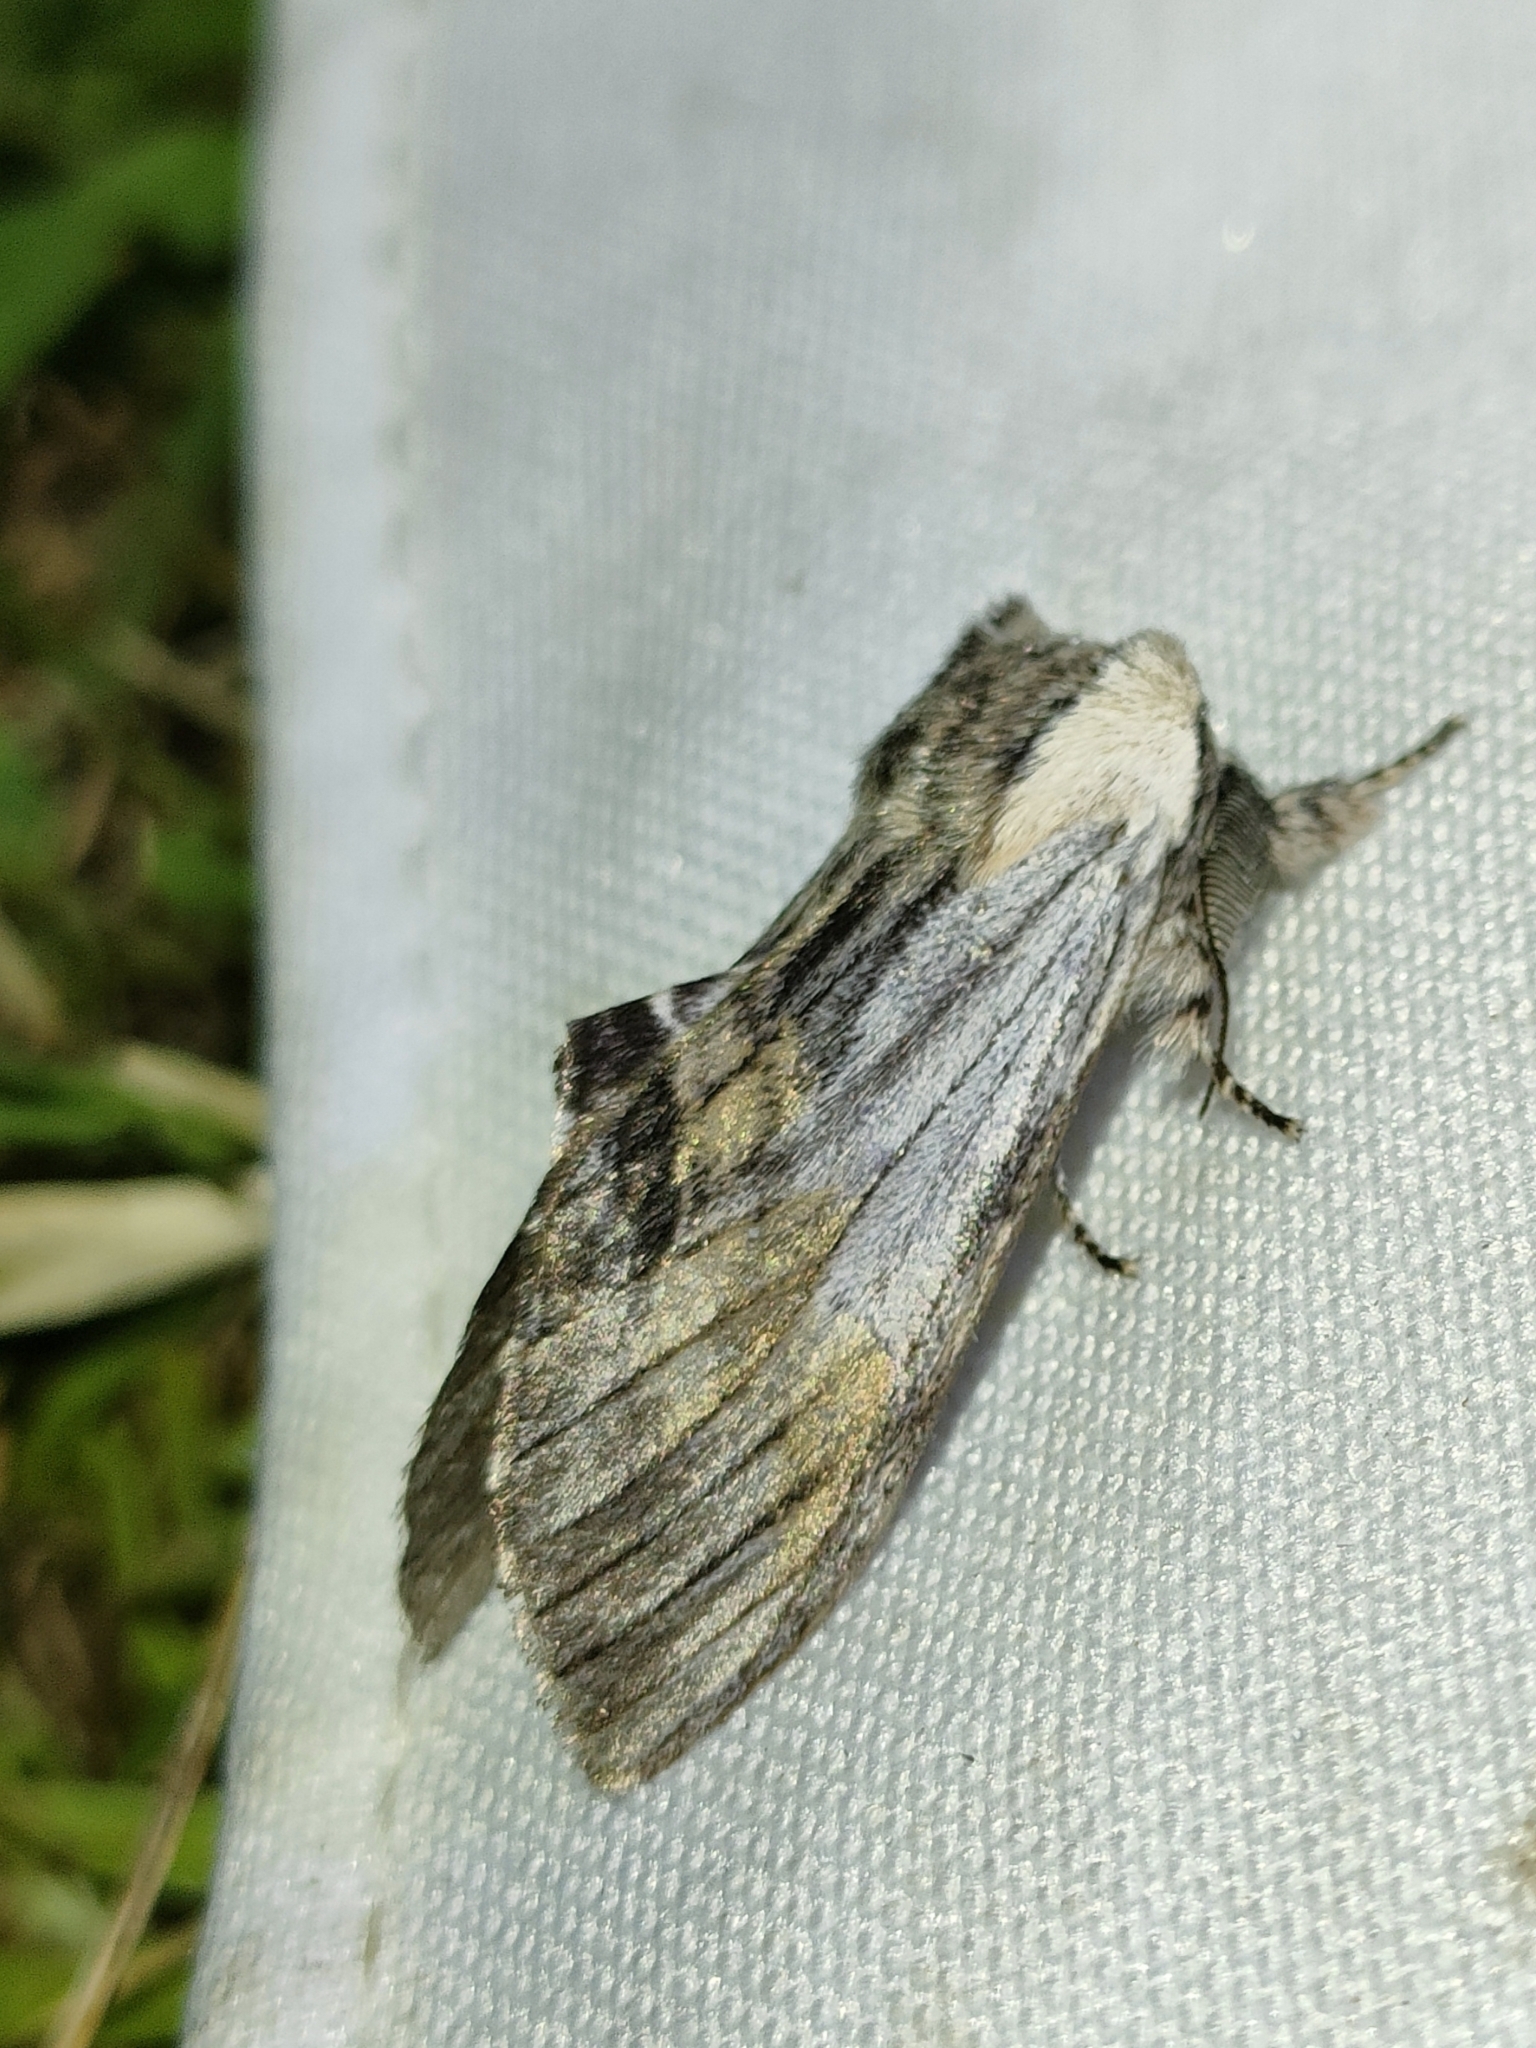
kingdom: Animalia
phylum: Arthropoda
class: Insecta
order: Lepidoptera
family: Notodontidae
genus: Harpyia
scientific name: Harpyia milhauseri
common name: Tawny prominent
